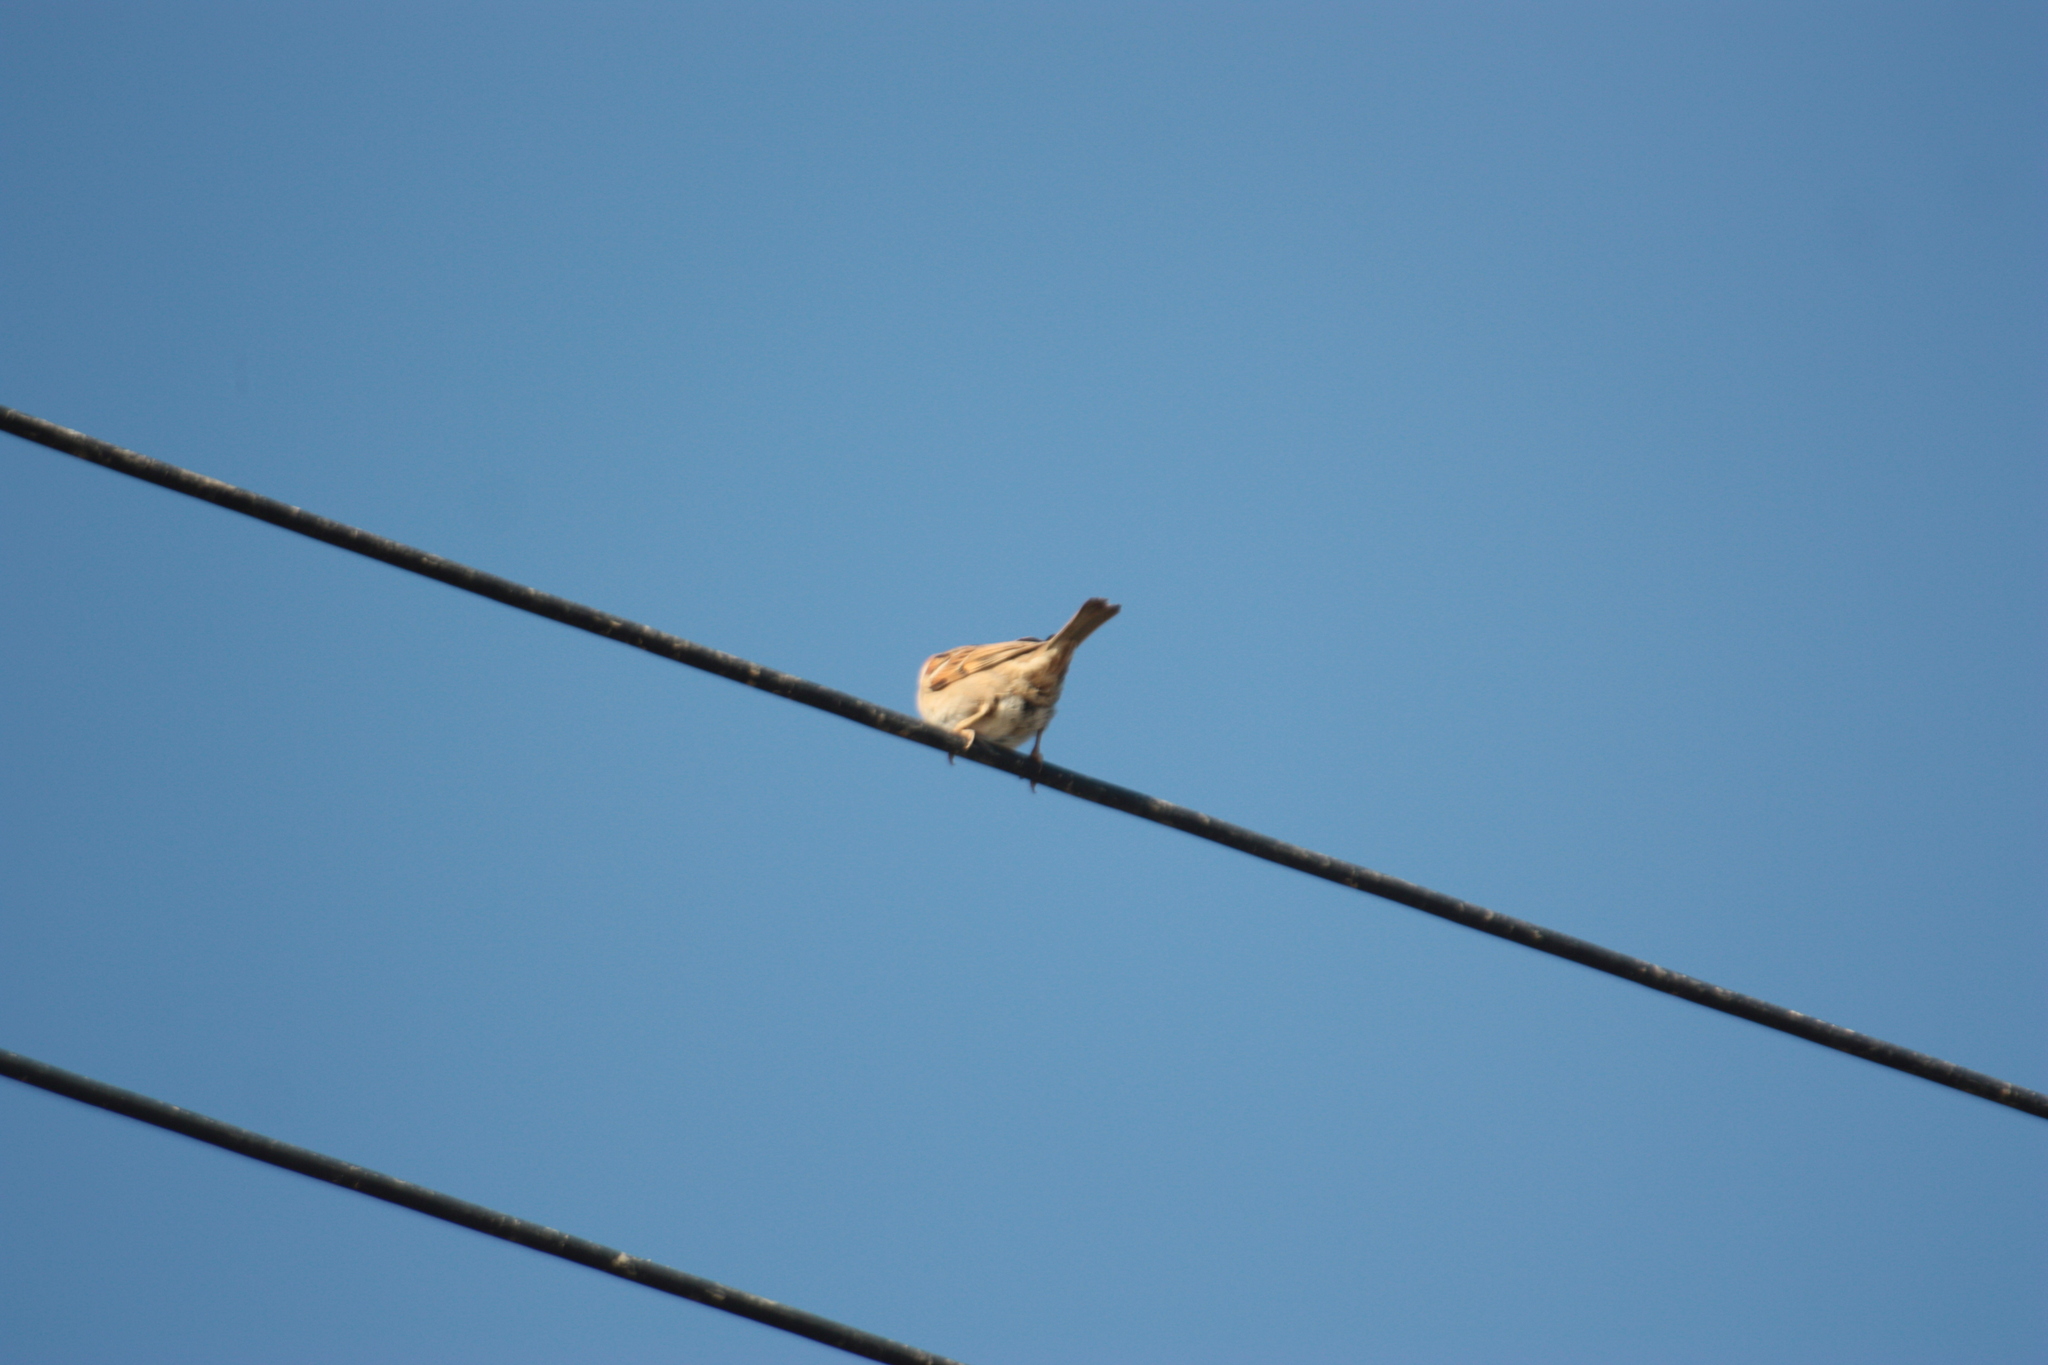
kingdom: Animalia
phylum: Chordata
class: Aves
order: Passeriformes
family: Passeridae
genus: Passer
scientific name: Passer montanus
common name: Eurasian tree sparrow
